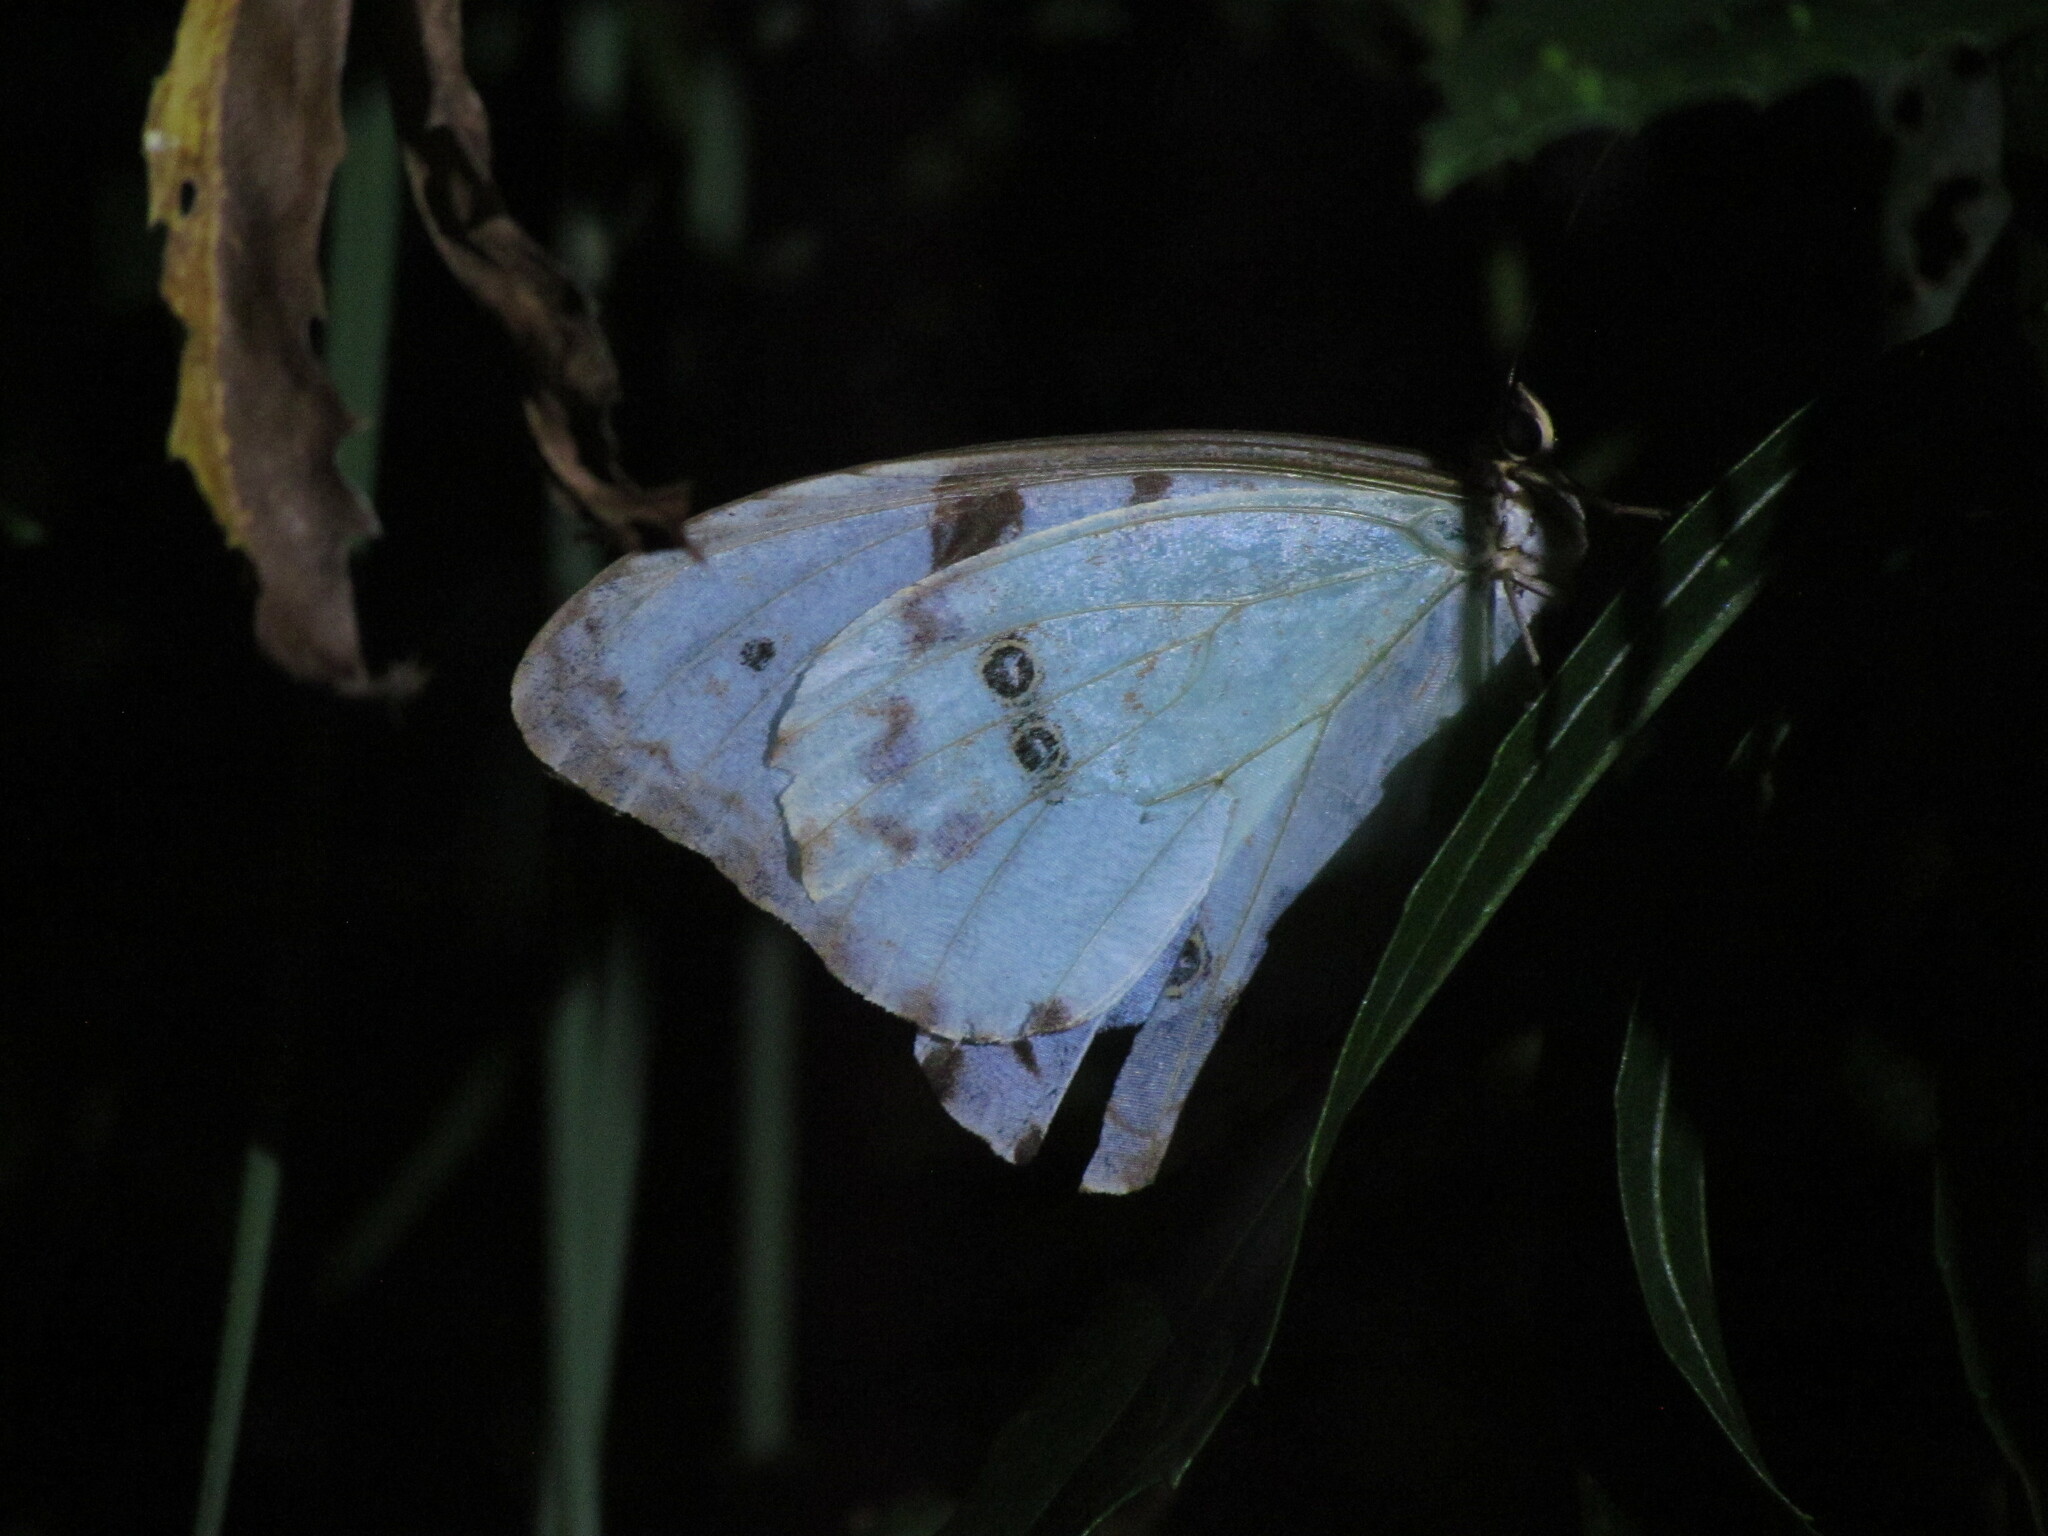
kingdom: Animalia
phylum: Arthropoda
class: Insecta
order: Lepidoptera
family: Nymphalidae
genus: Morpho
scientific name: Morpho epistrophus
